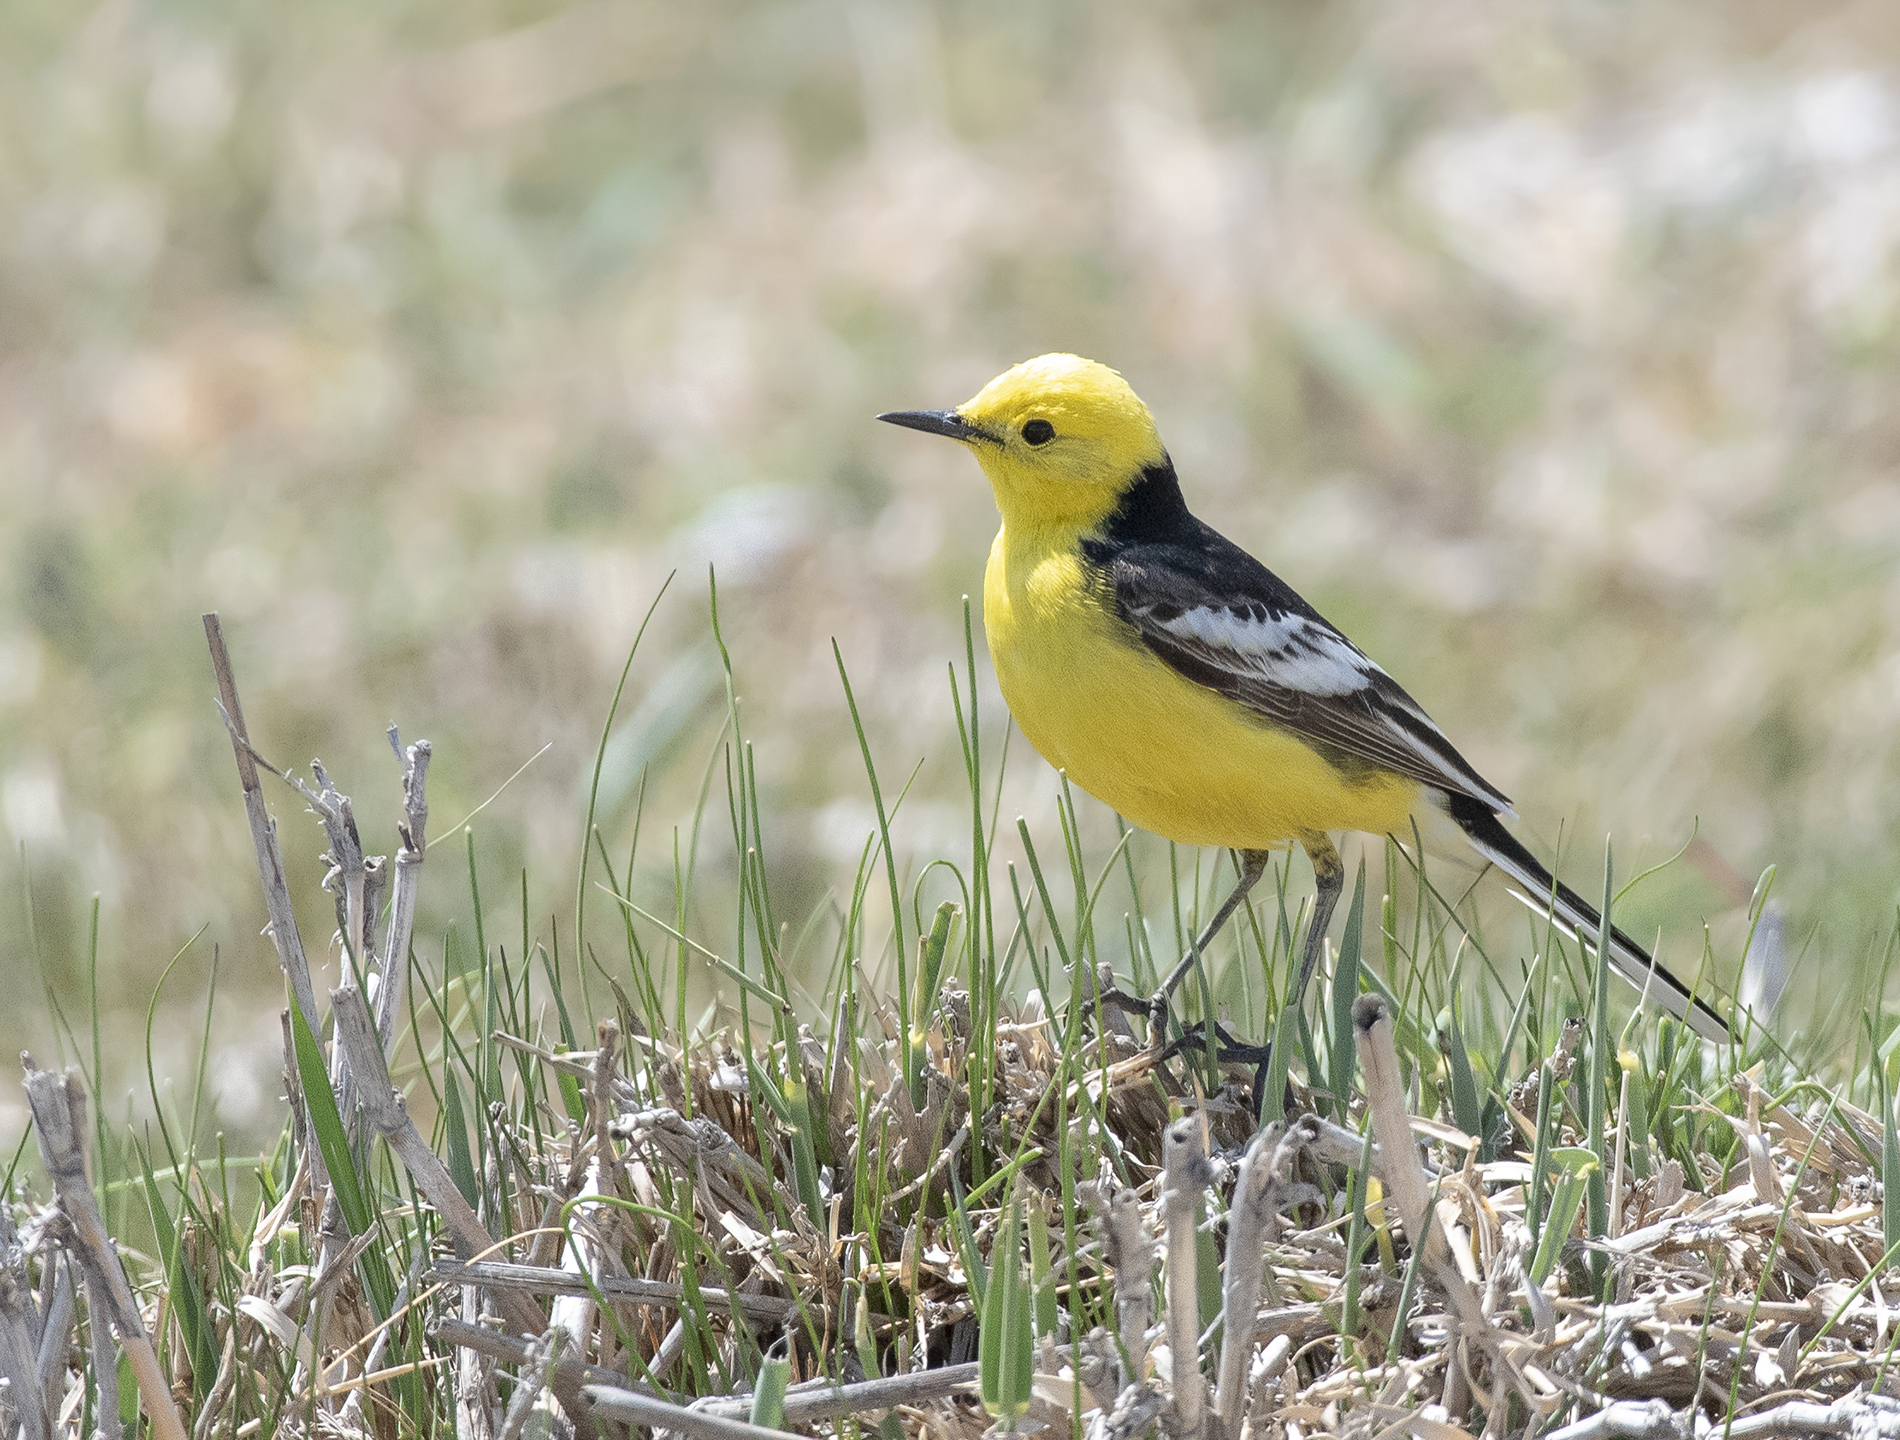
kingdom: Animalia
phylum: Chordata
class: Aves
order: Passeriformes
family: Motacillidae
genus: Motacilla
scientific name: Motacilla citreola
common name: Citrine wagtail
